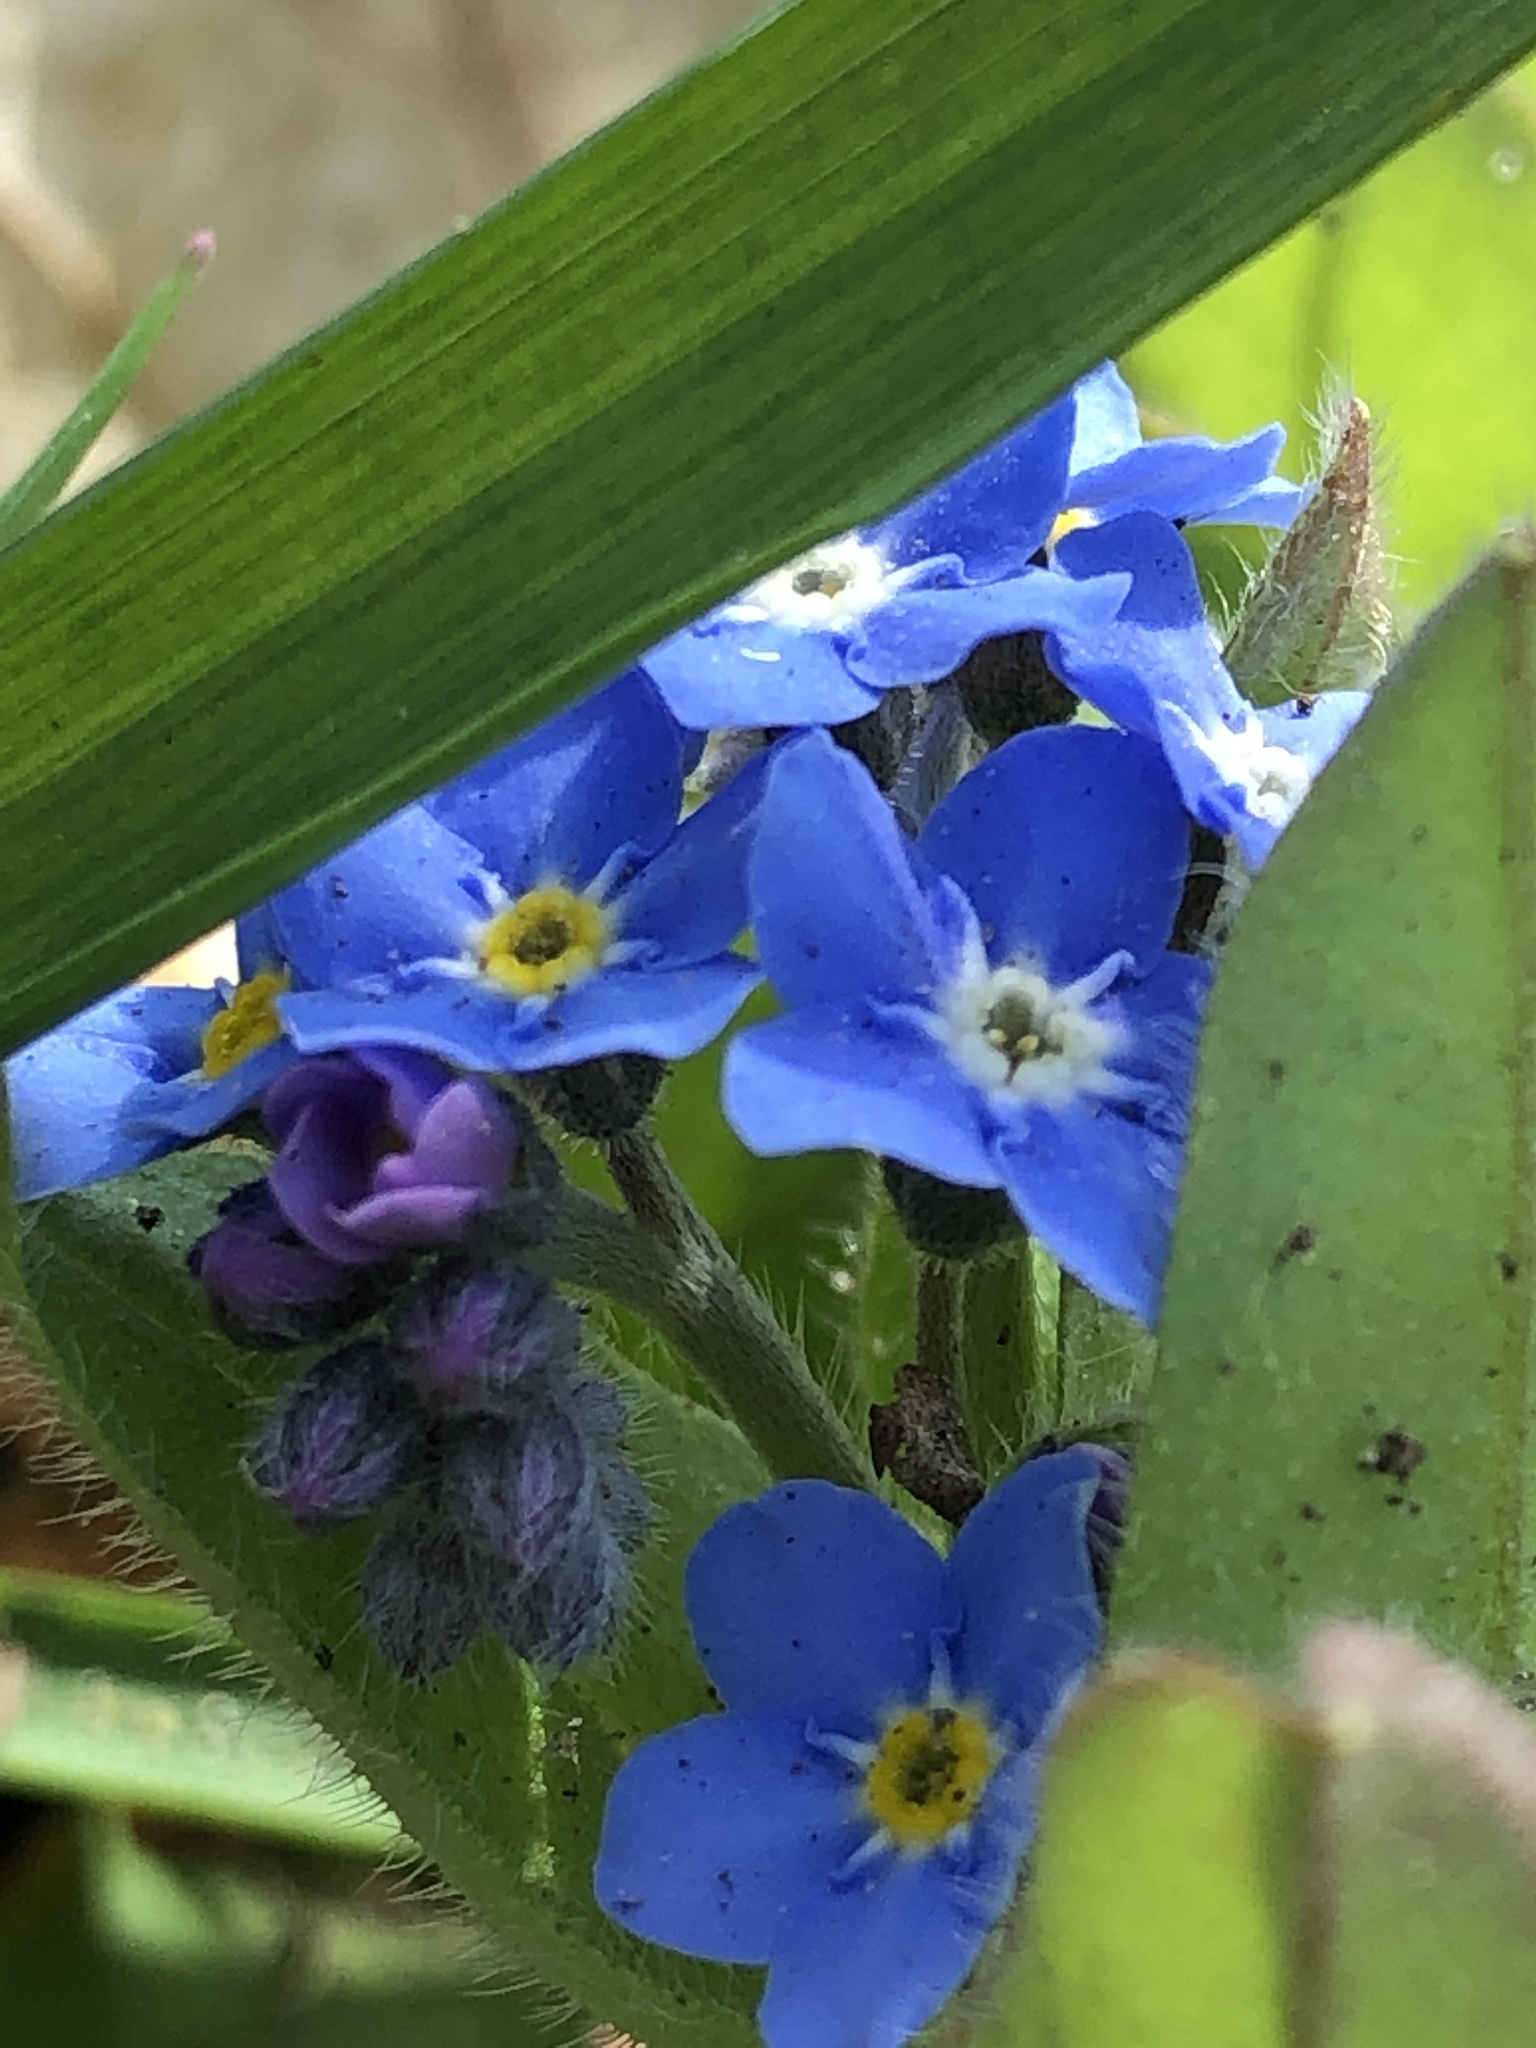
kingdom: Plantae
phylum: Tracheophyta
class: Magnoliopsida
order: Boraginales
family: Boraginaceae
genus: Myosotis
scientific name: Myosotis sylvatica
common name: Wood forget-me-not
